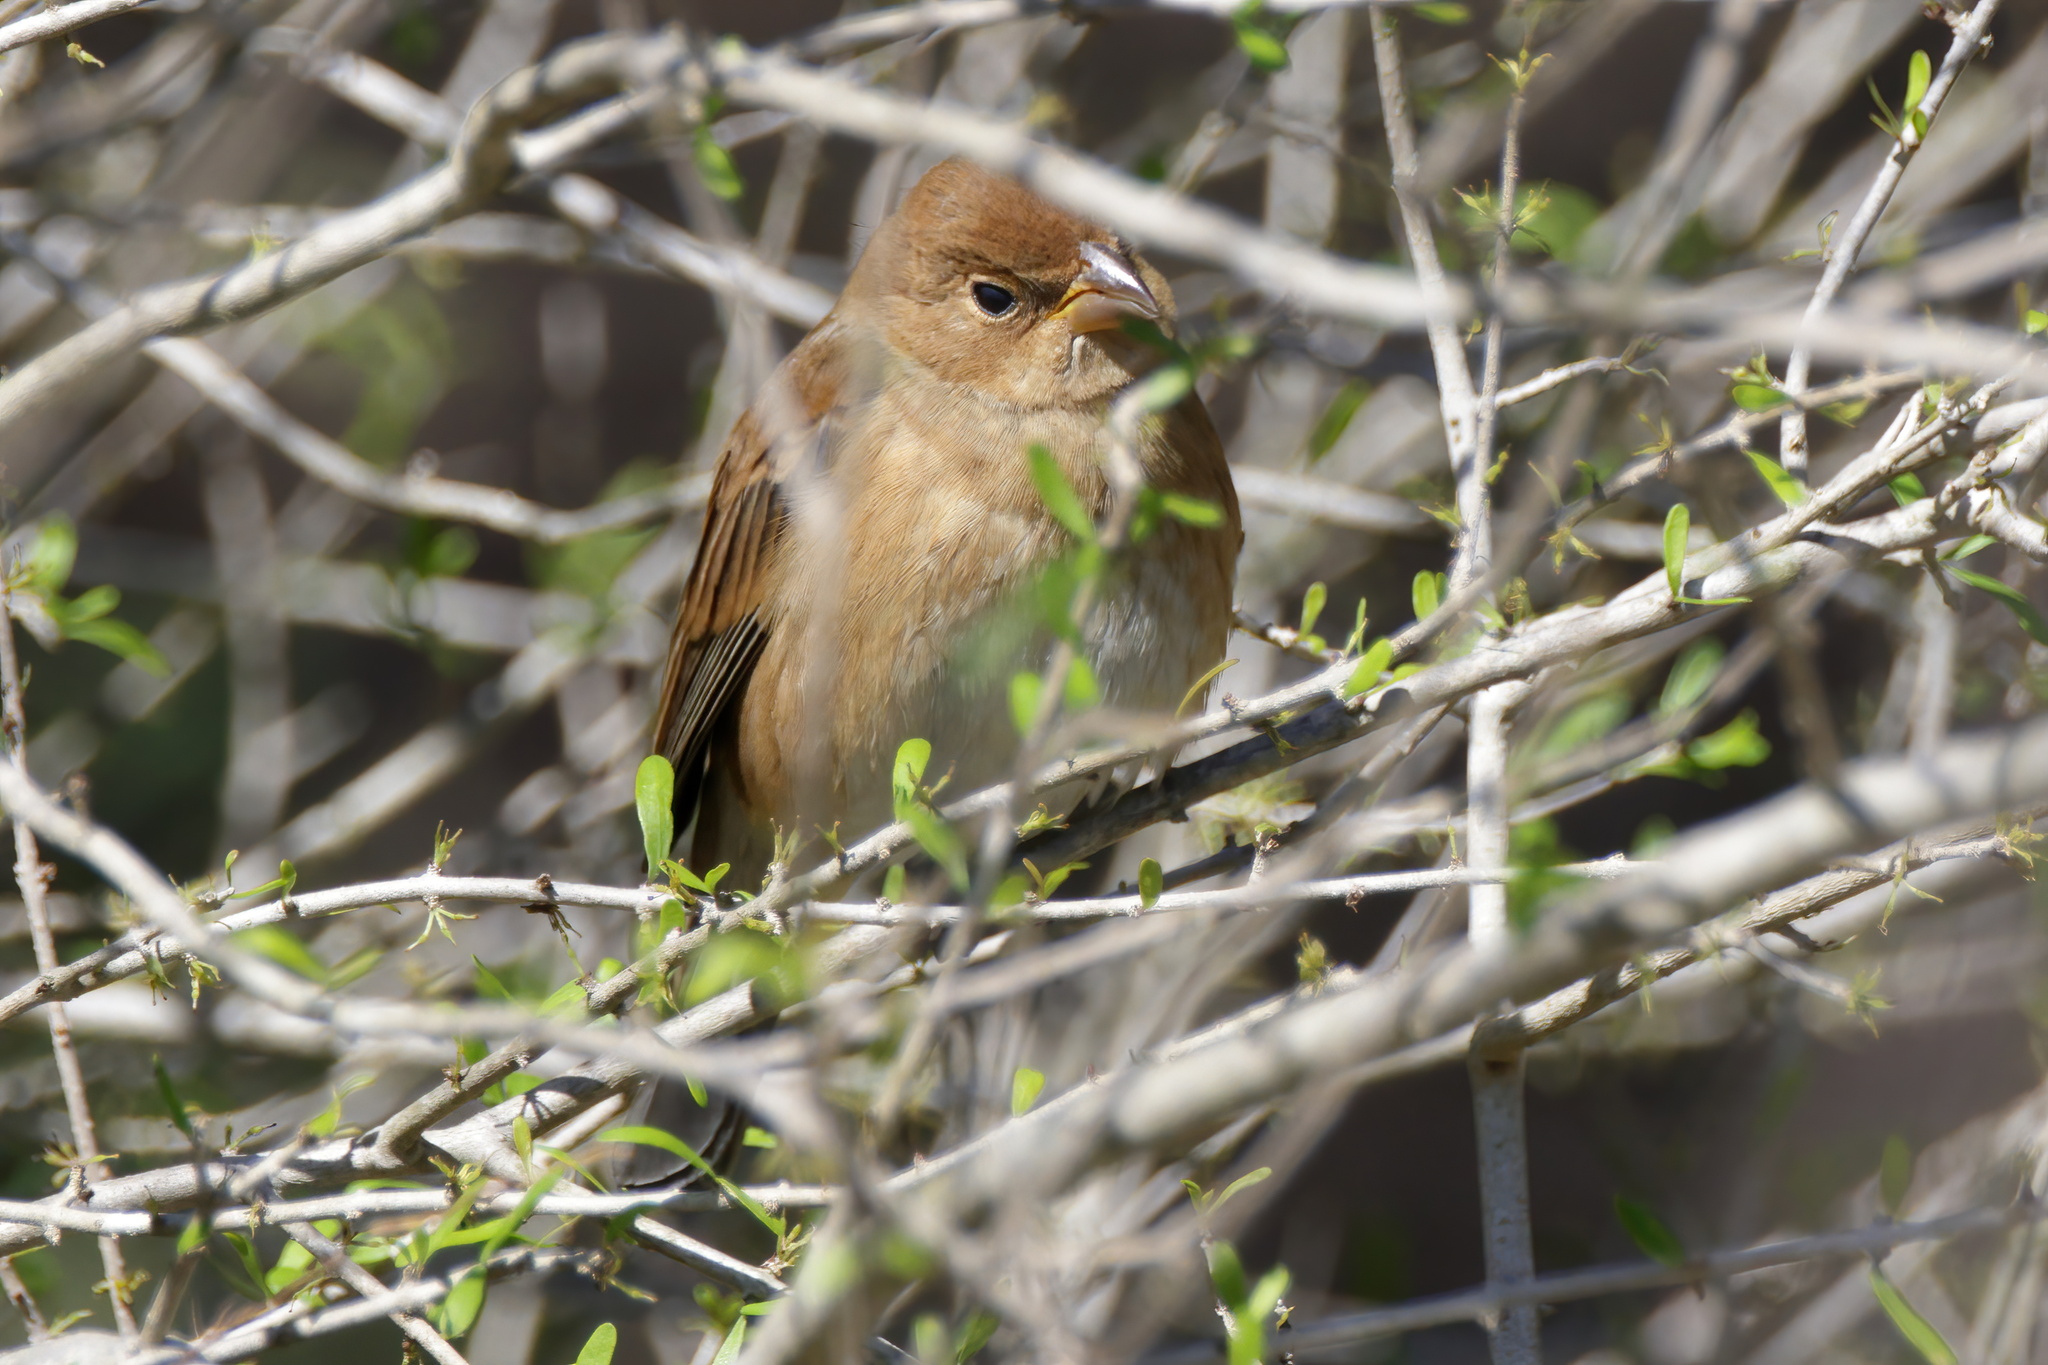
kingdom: Animalia
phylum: Chordata
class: Aves
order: Passeriformes
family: Cardinalidae
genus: Passerina
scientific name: Passerina cyanea
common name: Indigo bunting
